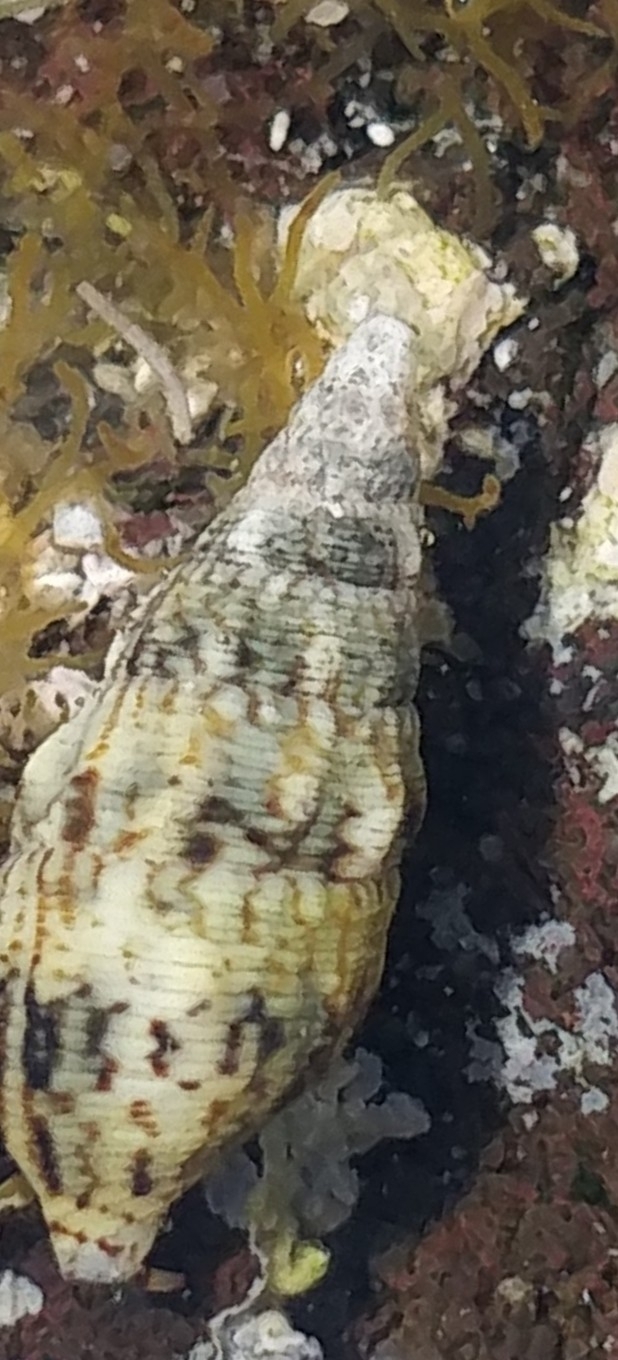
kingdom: Animalia
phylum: Mollusca
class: Gastropoda
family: Cerithiidae
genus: Cerithium
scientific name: Cerithium vulgatum
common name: European cerith
